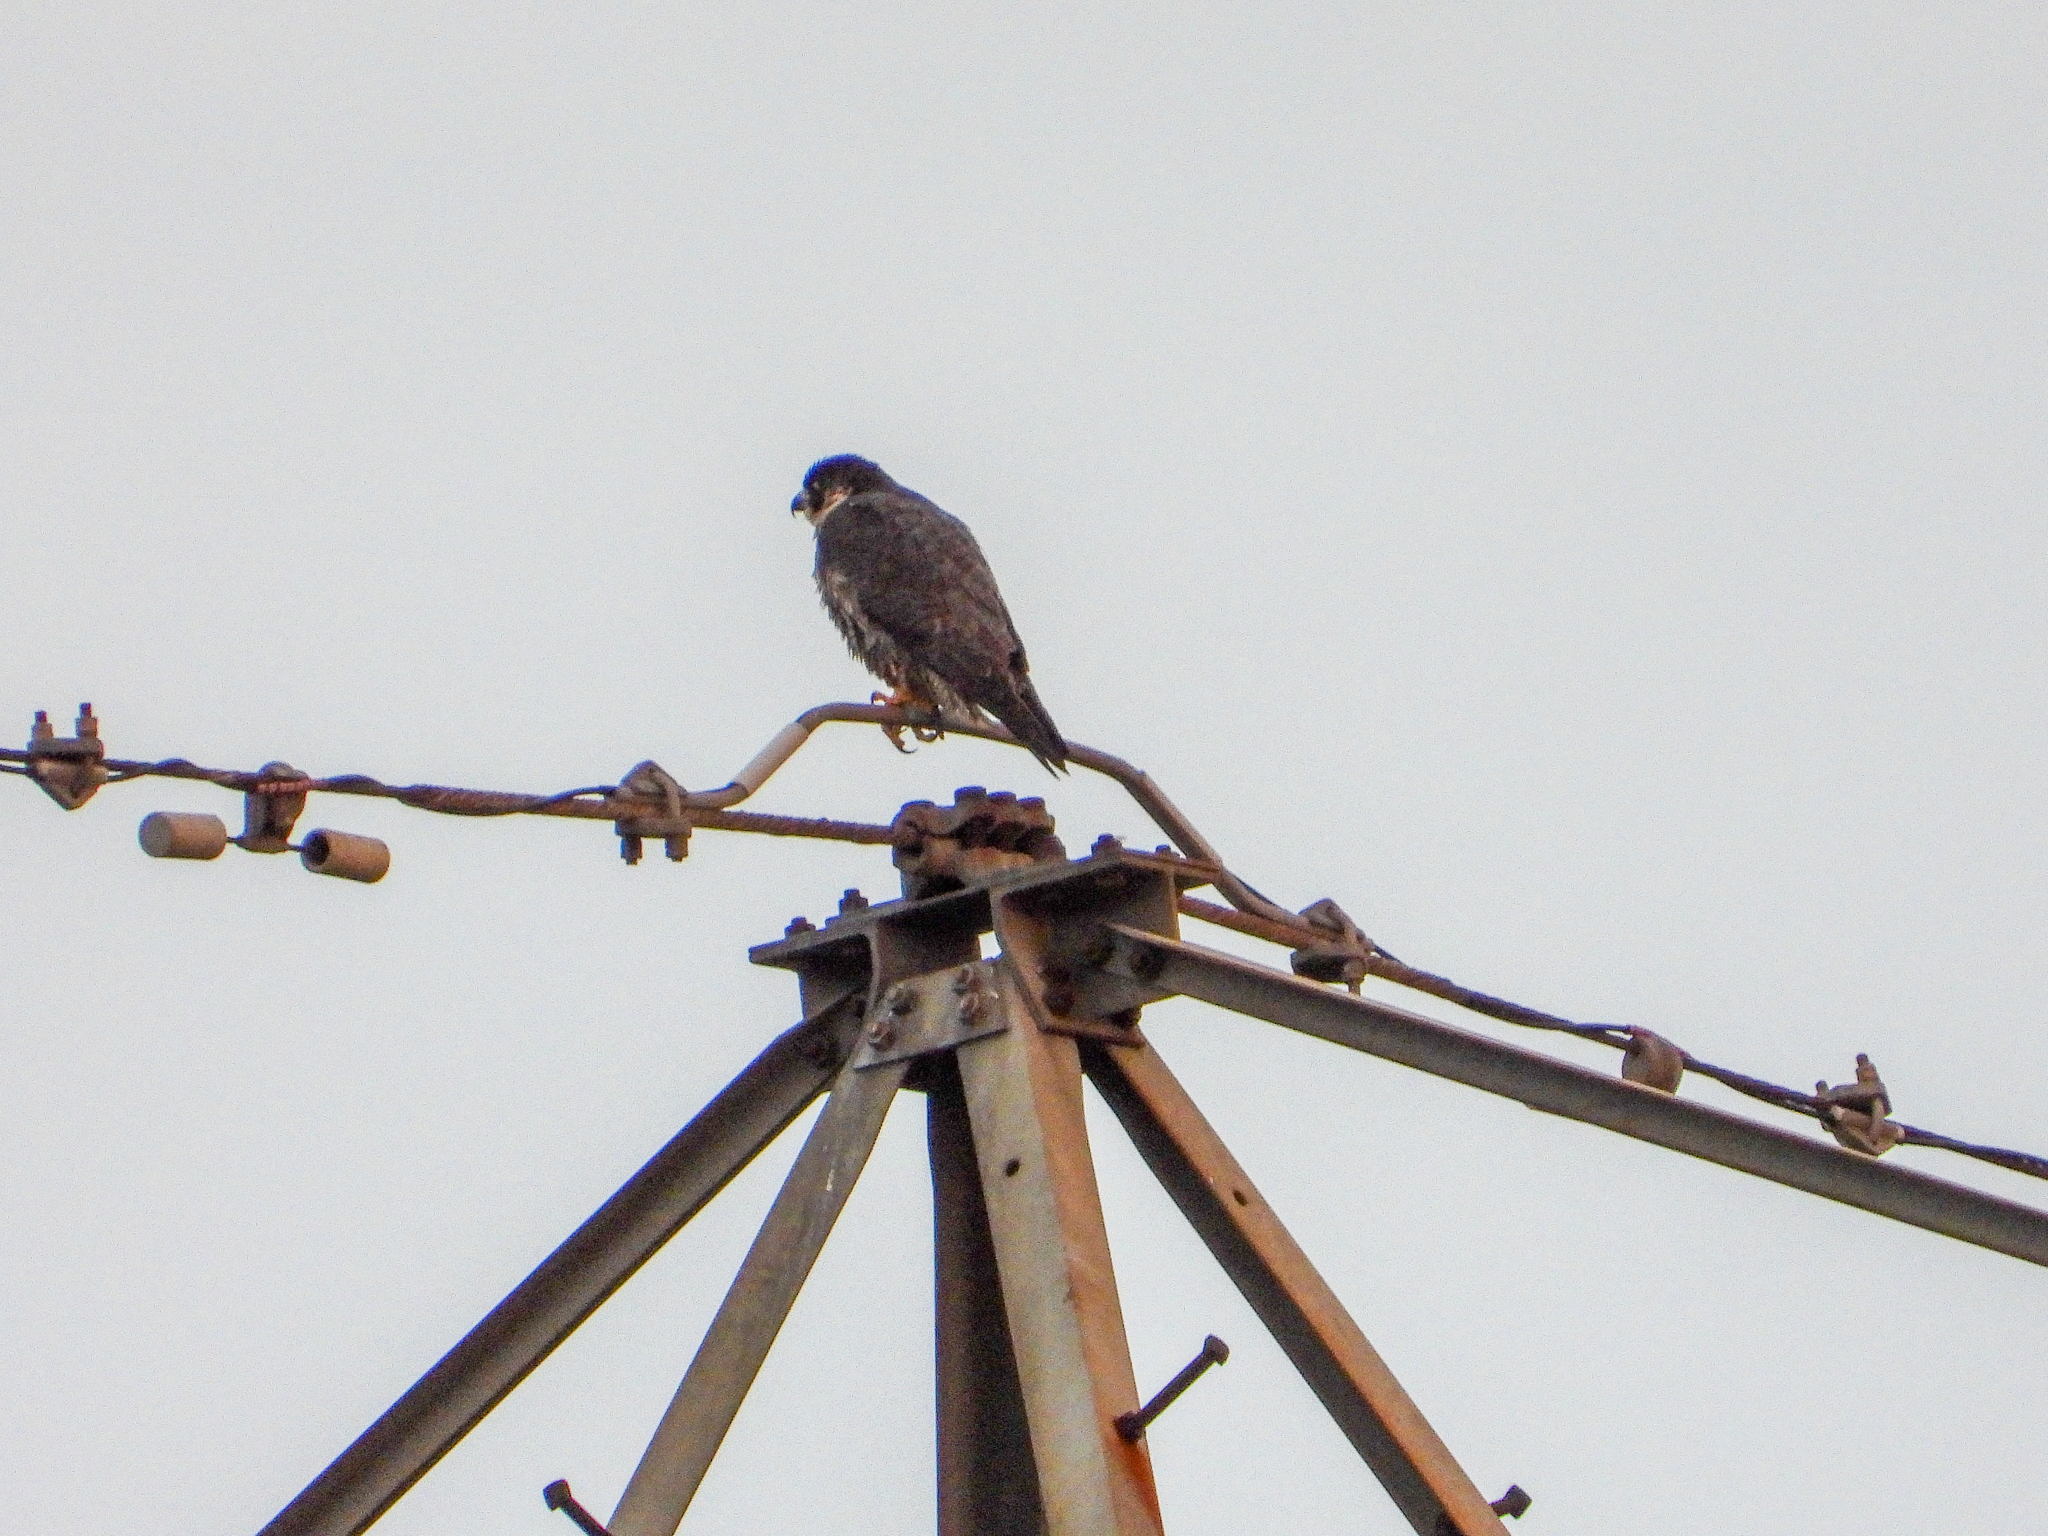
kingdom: Animalia
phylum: Chordata
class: Aves
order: Falconiformes
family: Falconidae
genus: Falco
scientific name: Falco peregrinus
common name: Peregrine falcon
